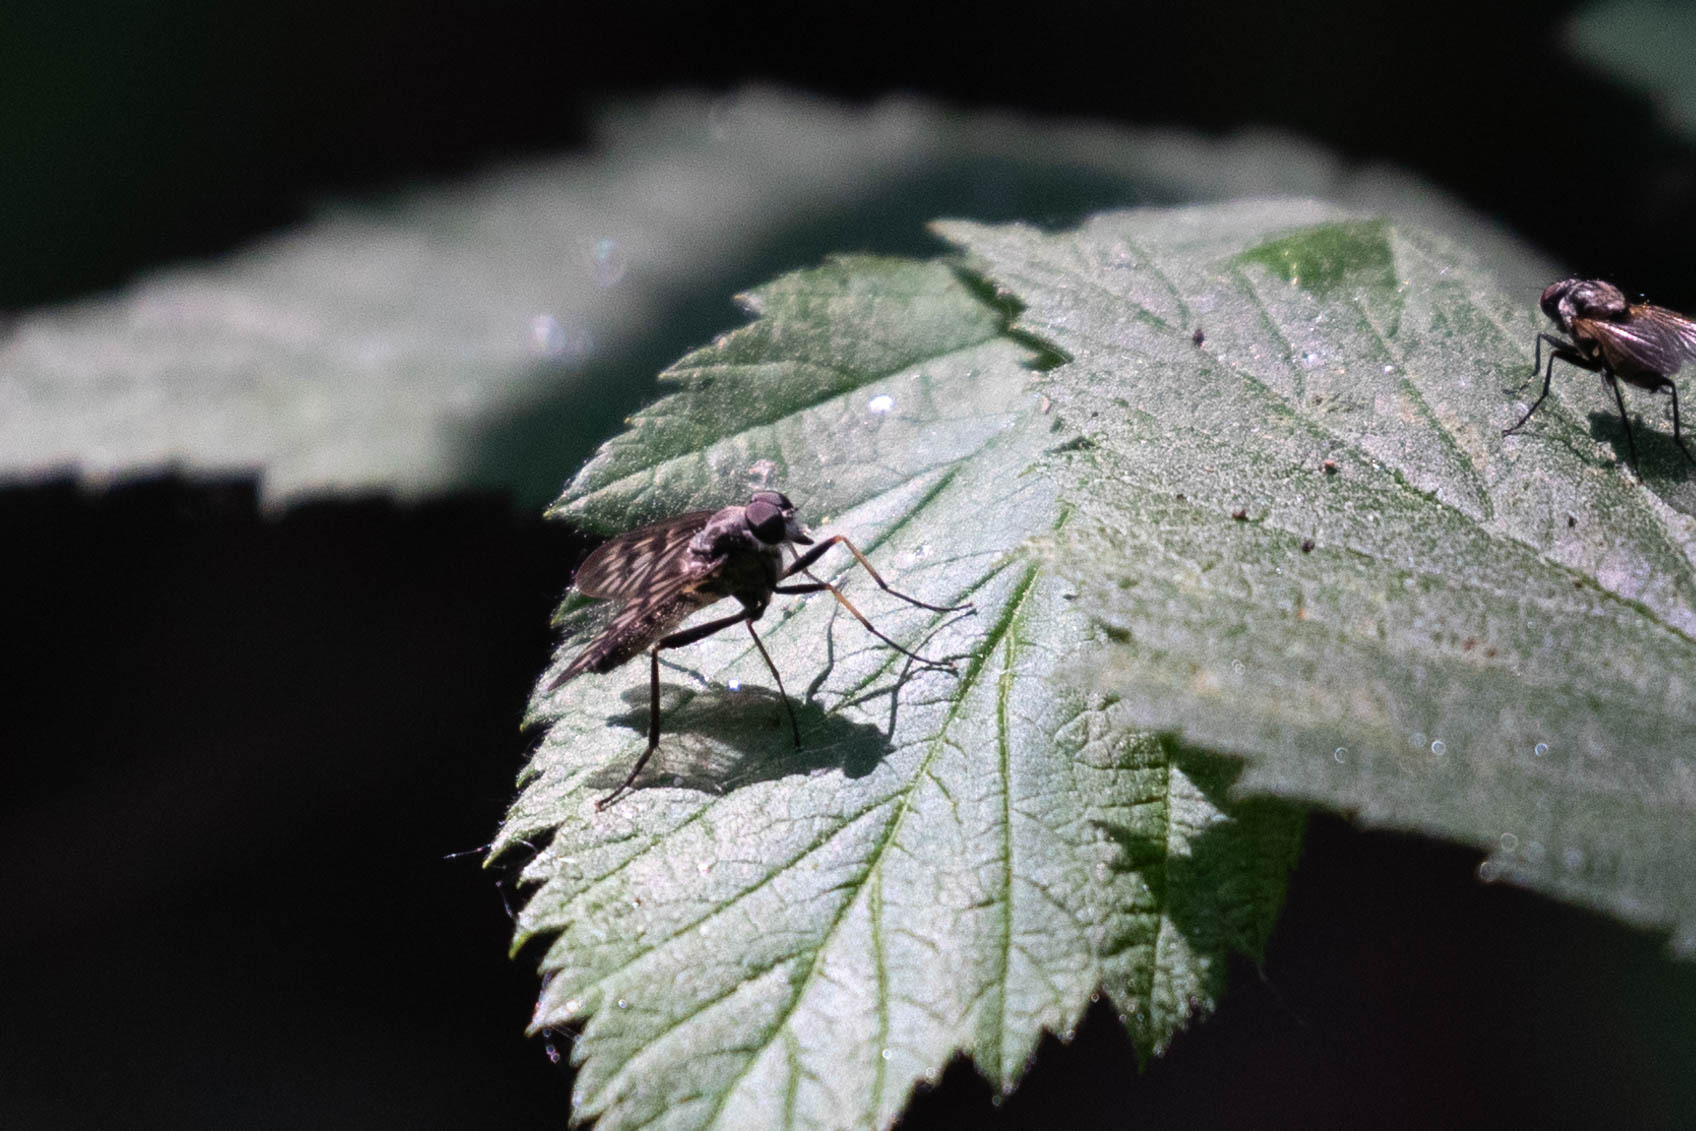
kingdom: Animalia
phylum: Arthropoda
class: Insecta
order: Diptera
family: Rhagionidae
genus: Rhagio
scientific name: Rhagio mystaceus
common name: Common snipe fly
